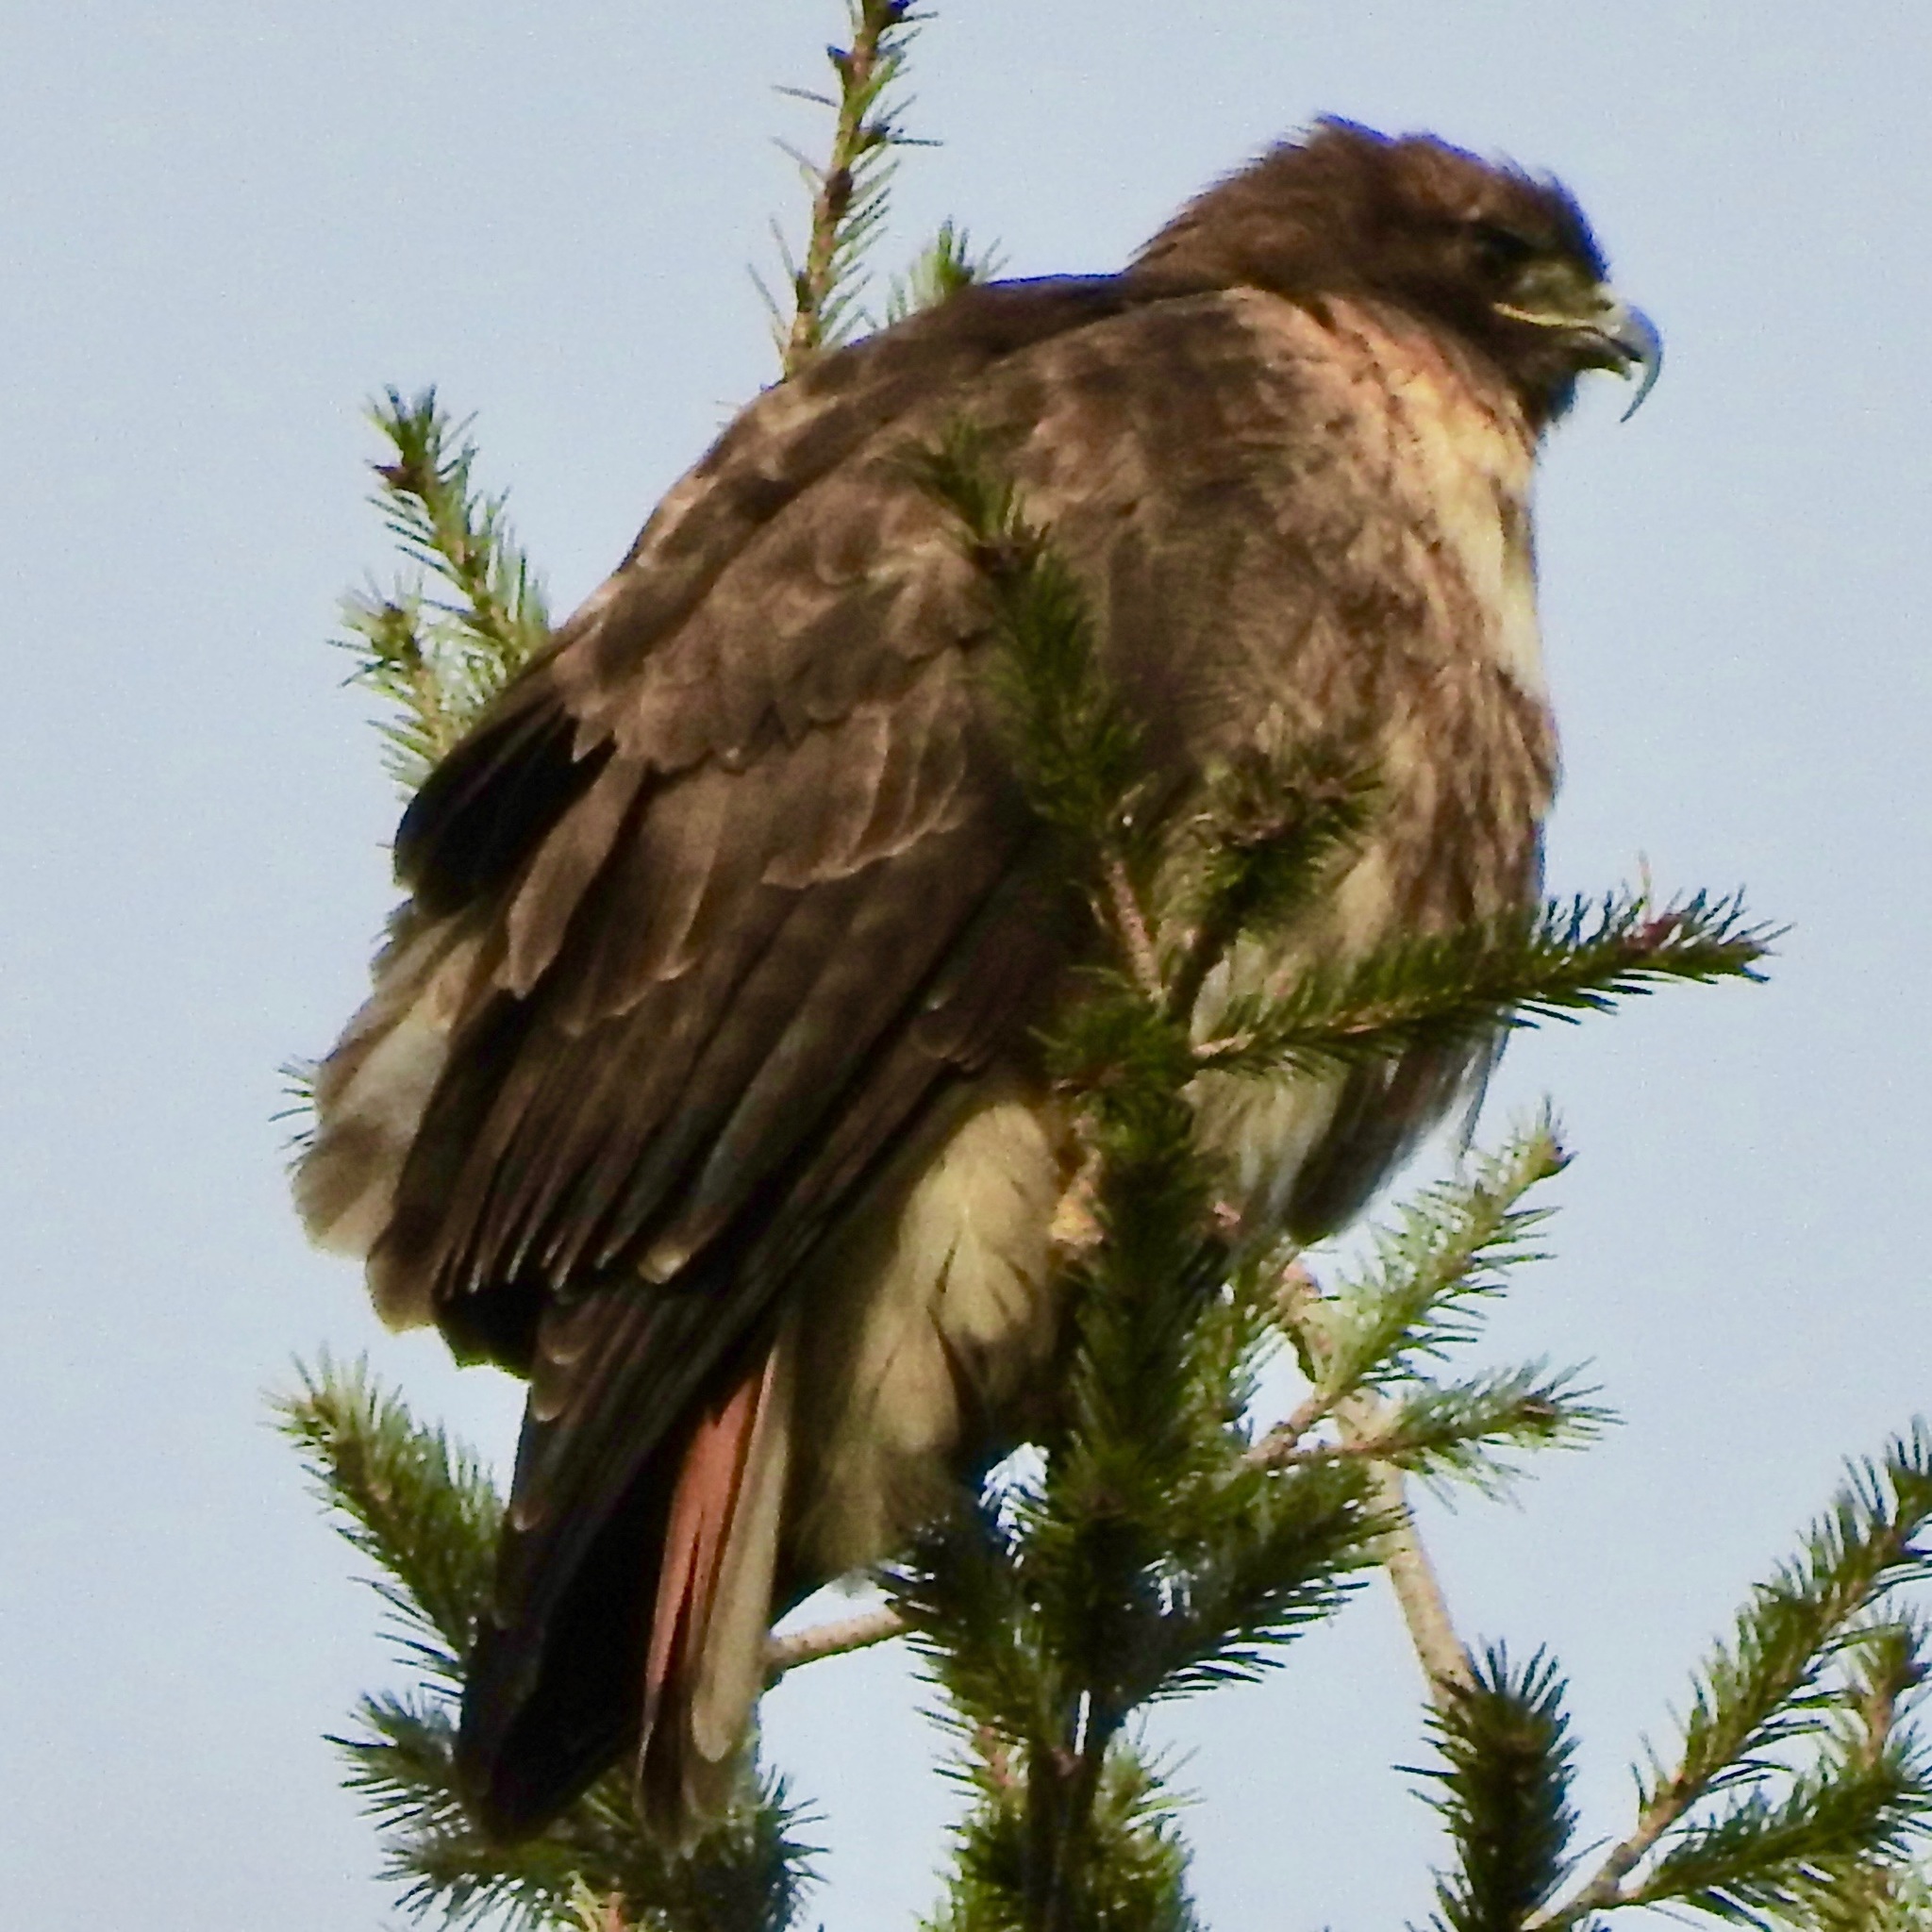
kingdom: Animalia
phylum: Chordata
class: Aves
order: Accipitriformes
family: Accipitridae
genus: Buteo
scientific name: Buteo jamaicensis
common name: Red-tailed hawk
